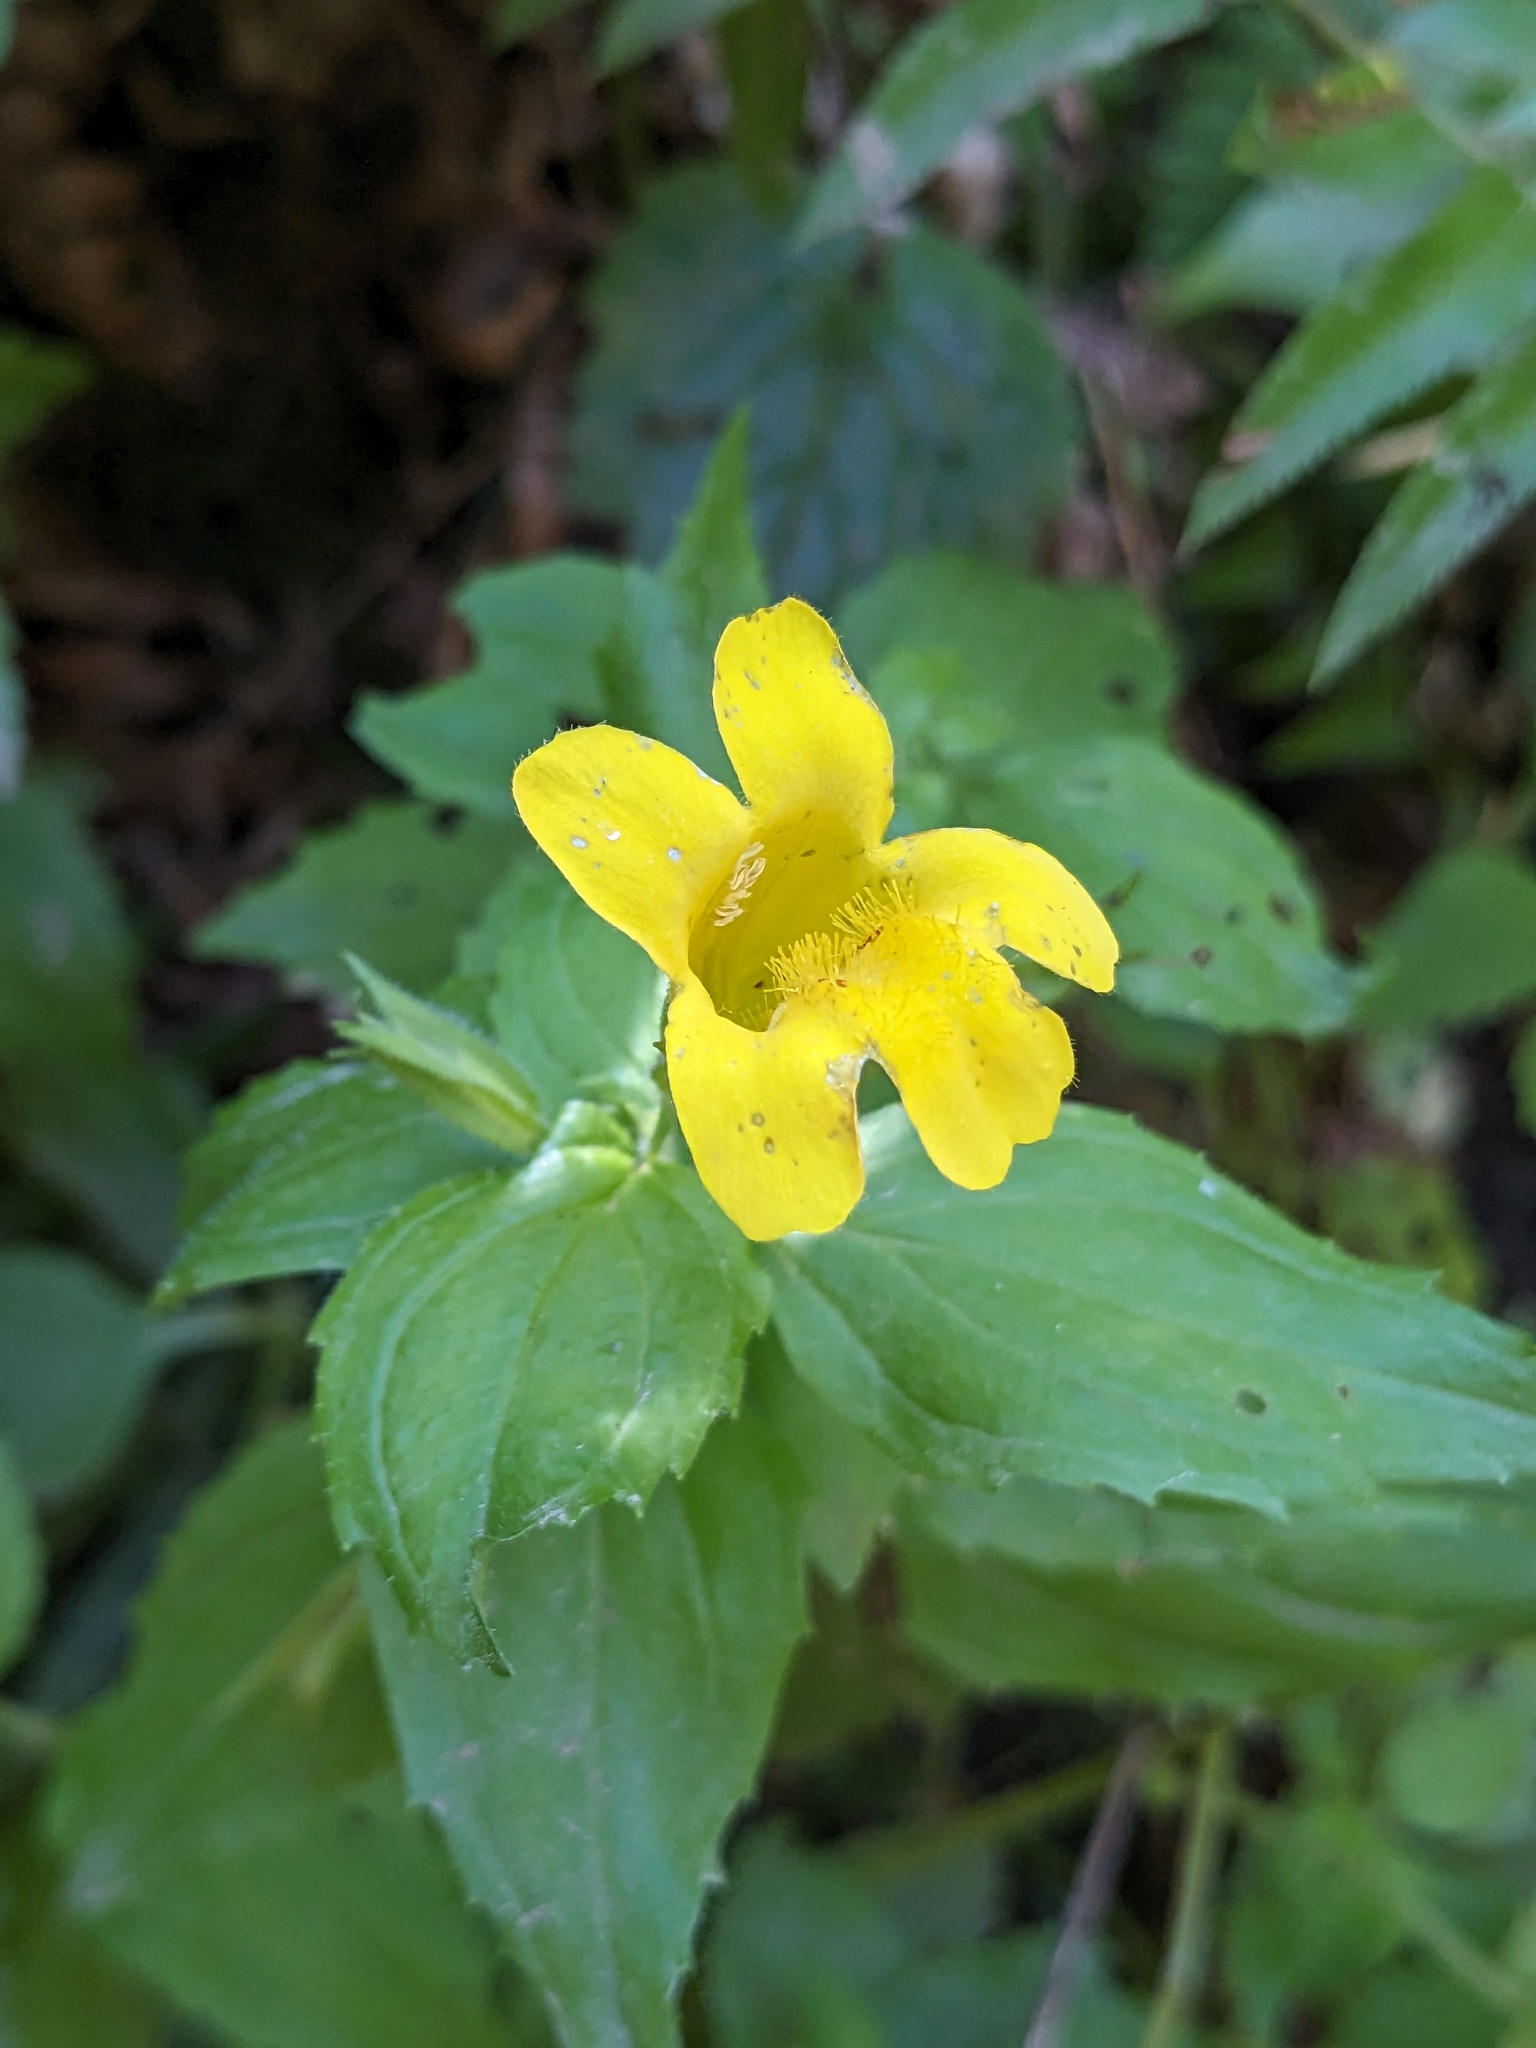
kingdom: Plantae
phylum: Tracheophyta
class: Magnoliopsida
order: Lamiales
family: Phrymaceae
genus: Erythranthe
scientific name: Erythranthe dentata
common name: Coastal monkeyflower
